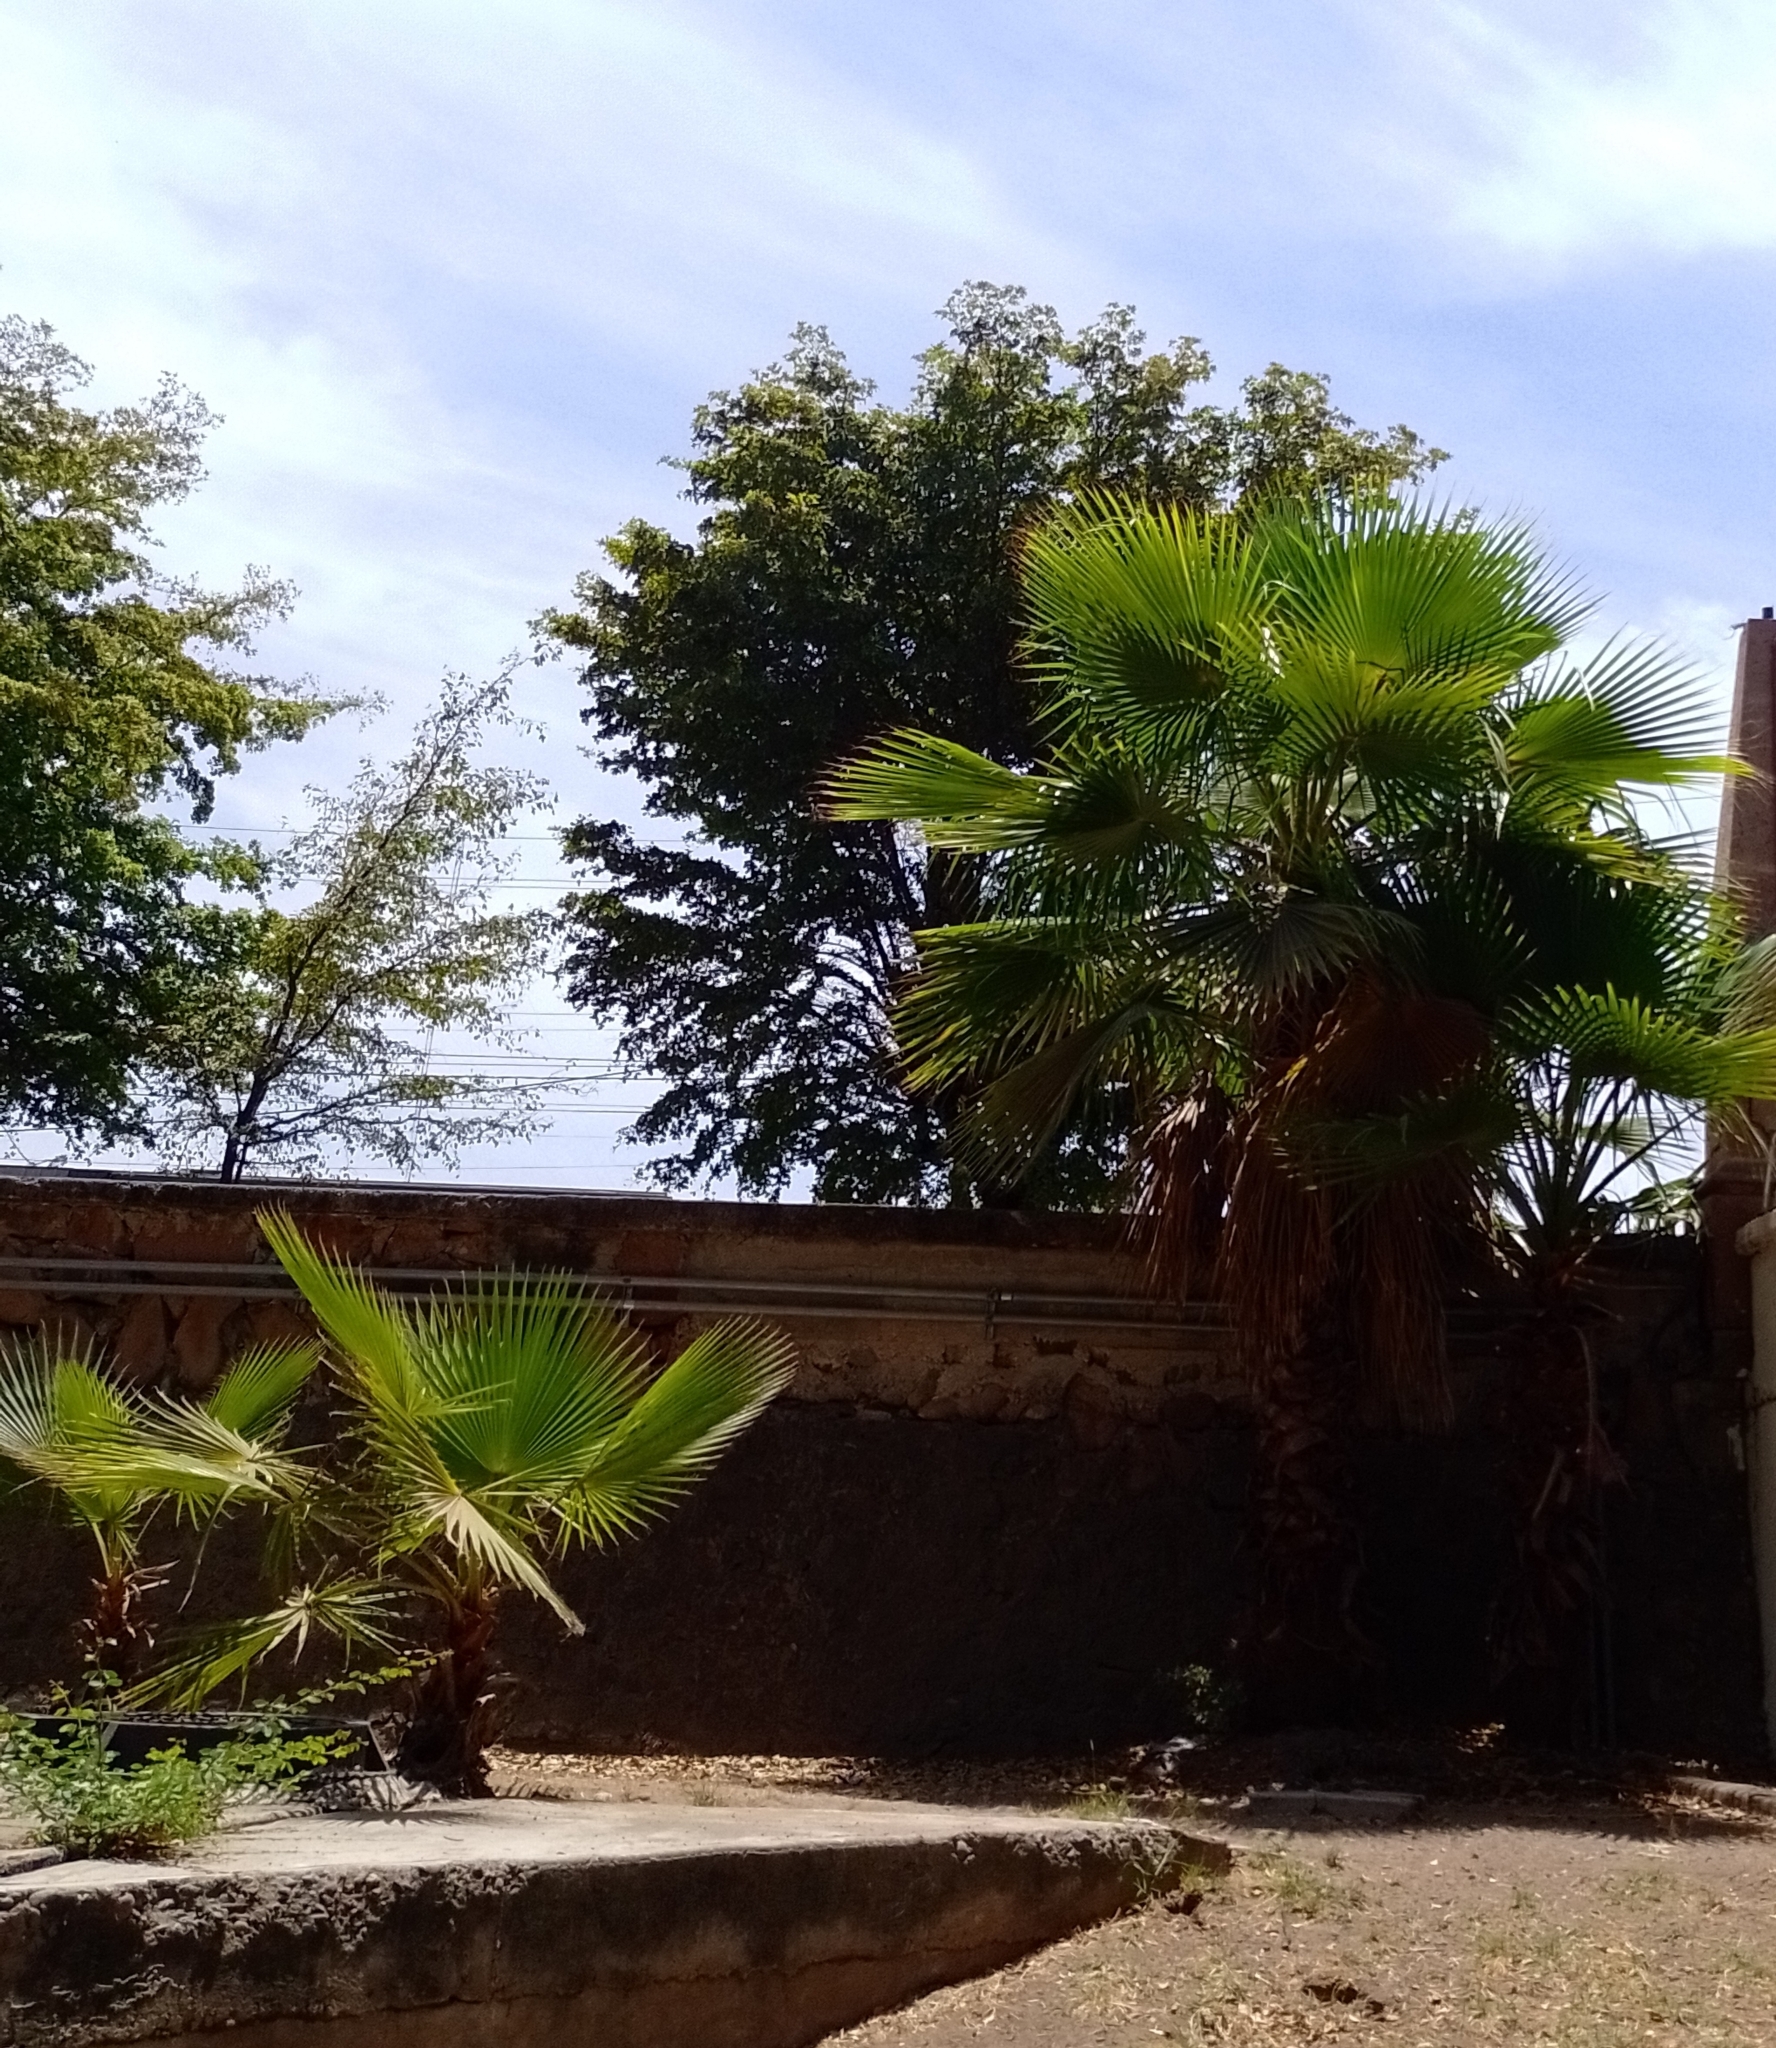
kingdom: Plantae
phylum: Tracheophyta
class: Liliopsida
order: Arecales
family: Arecaceae
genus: Washingtonia
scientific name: Washingtonia robusta
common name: Mexican fan palm
